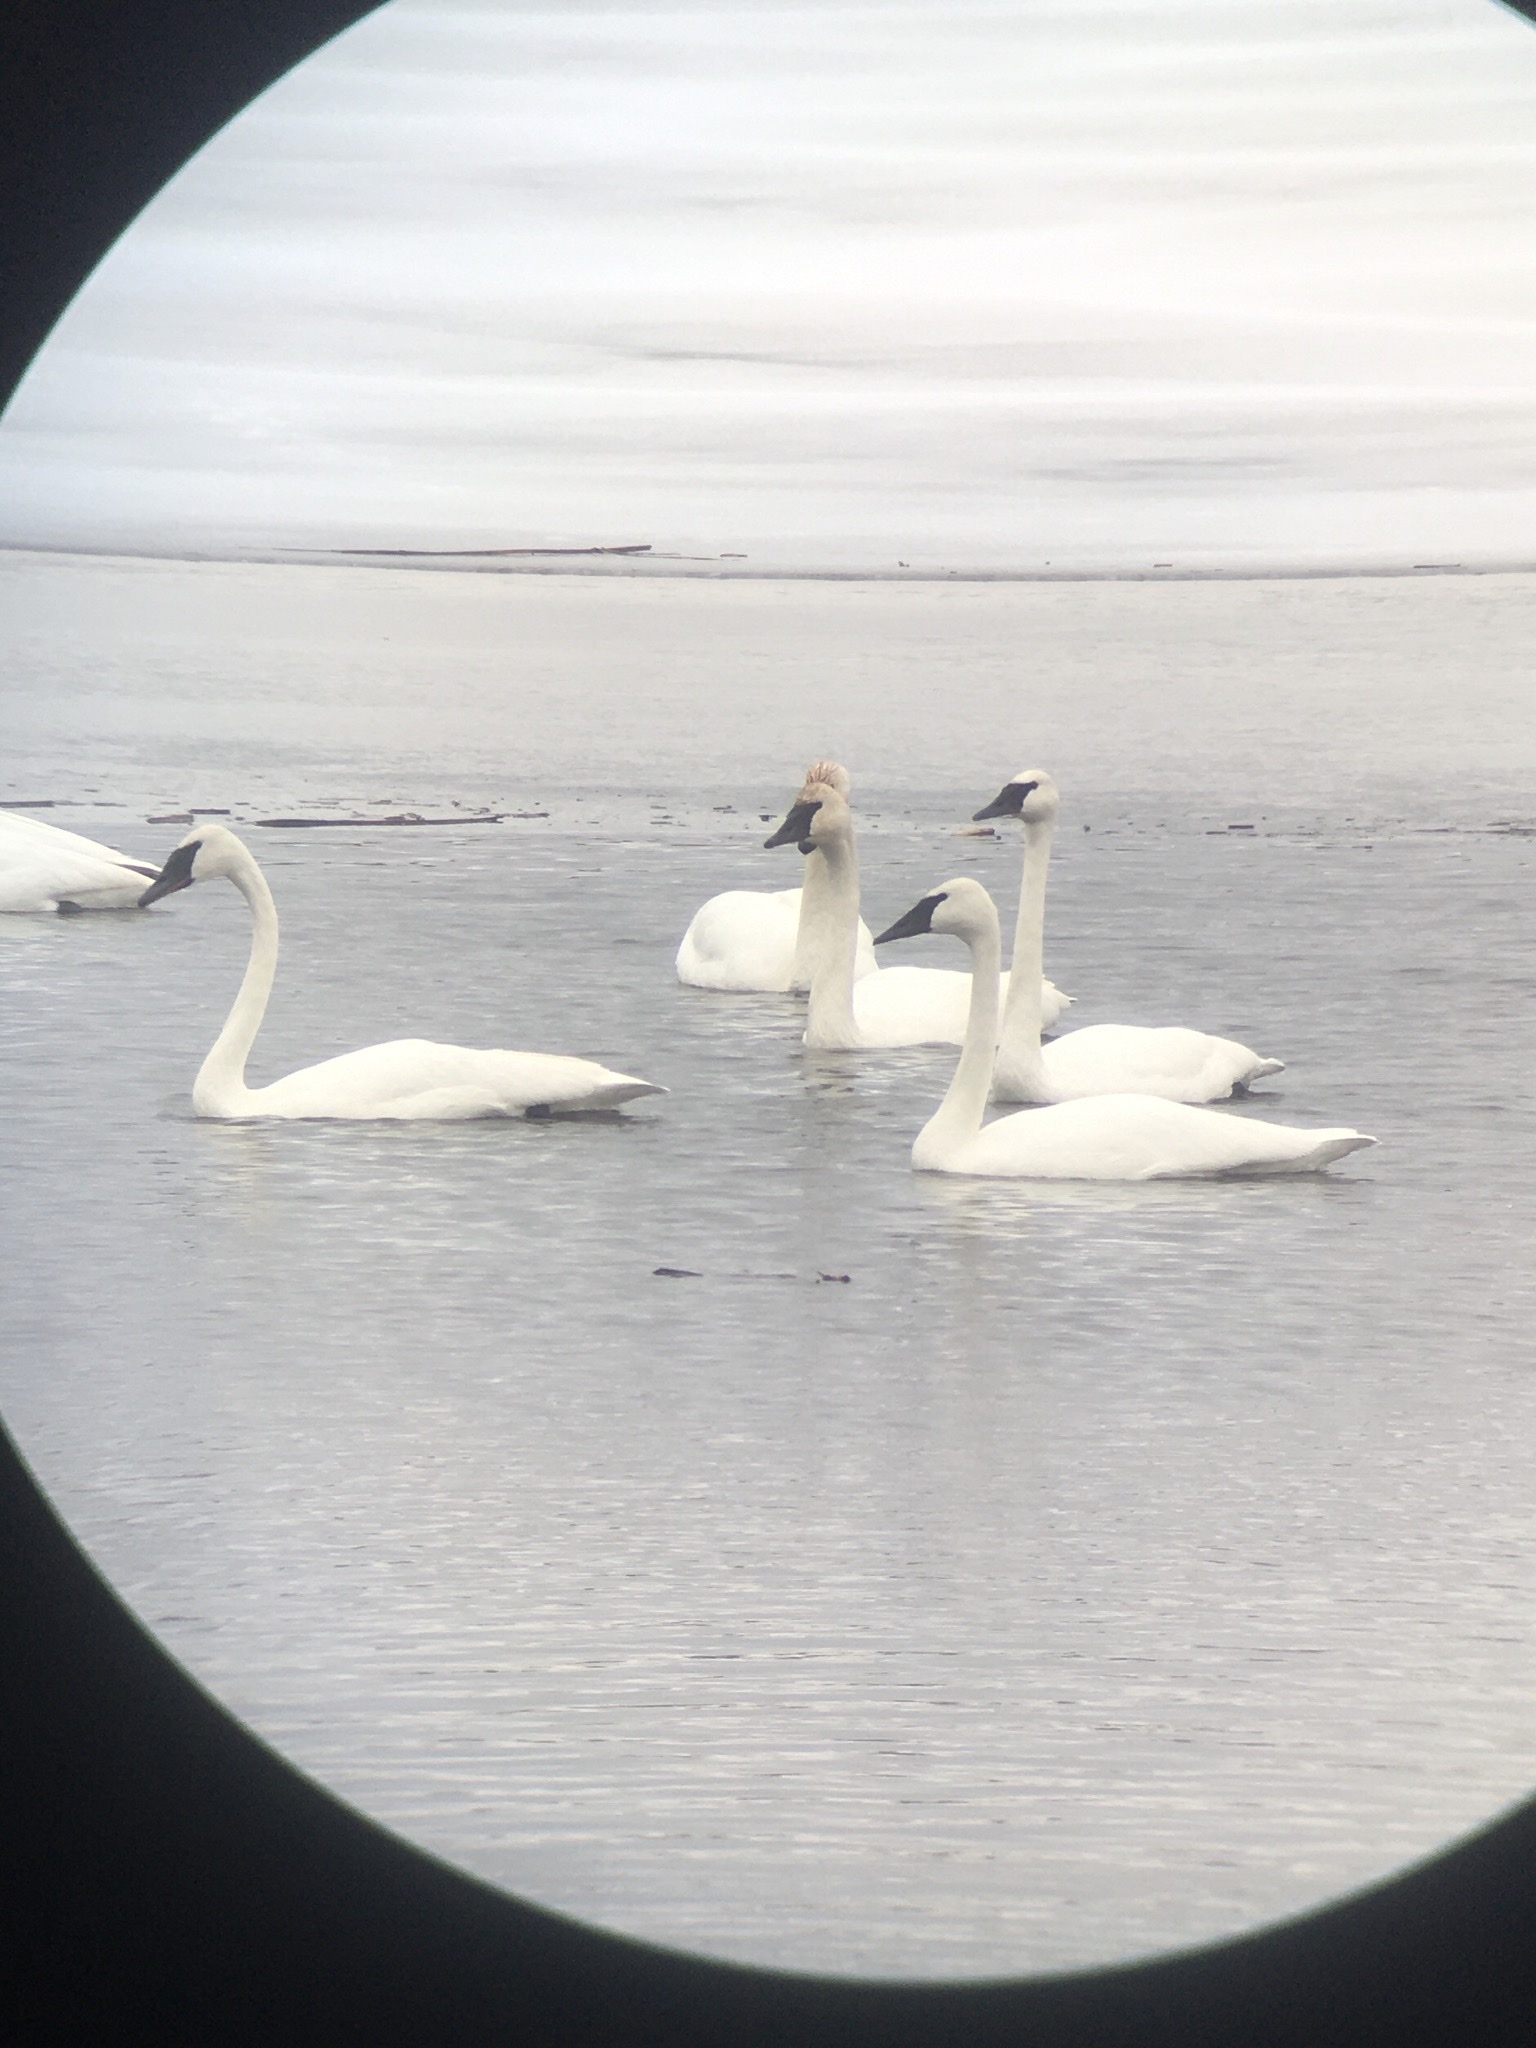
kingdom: Animalia
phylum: Chordata
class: Aves
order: Anseriformes
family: Anatidae
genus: Cygnus
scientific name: Cygnus buccinator
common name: Trumpeter swan
